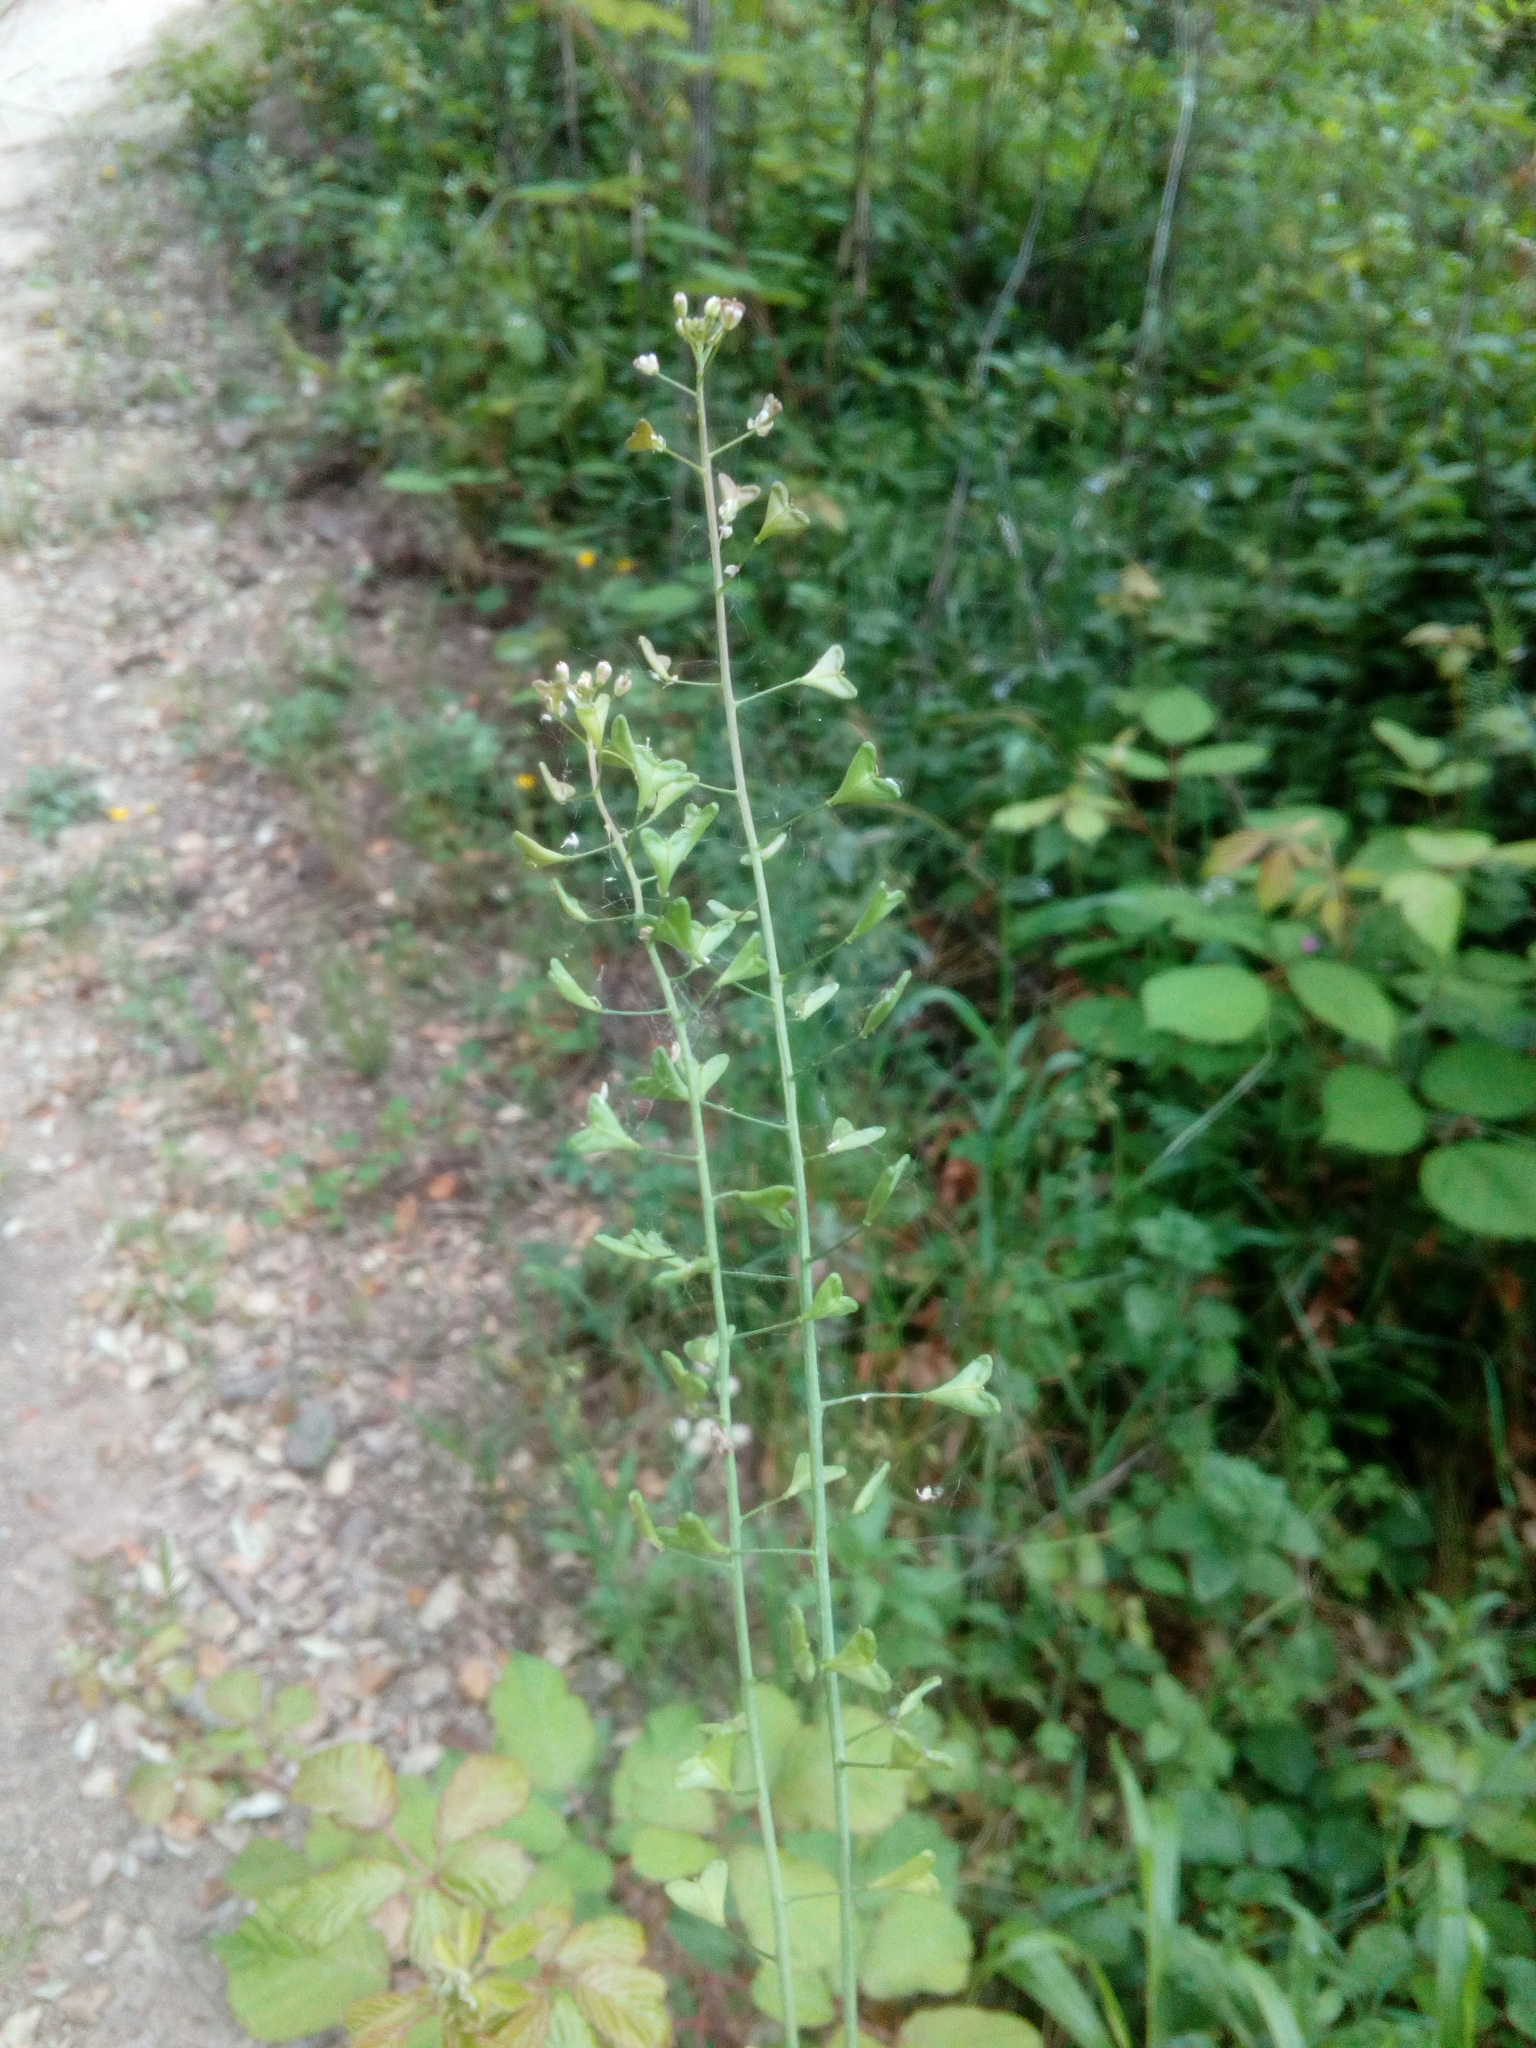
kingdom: Plantae
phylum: Tracheophyta
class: Magnoliopsida
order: Brassicales
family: Brassicaceae
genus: Capsella
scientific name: Capsella bursa-pastoris
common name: Shepherd's purse
